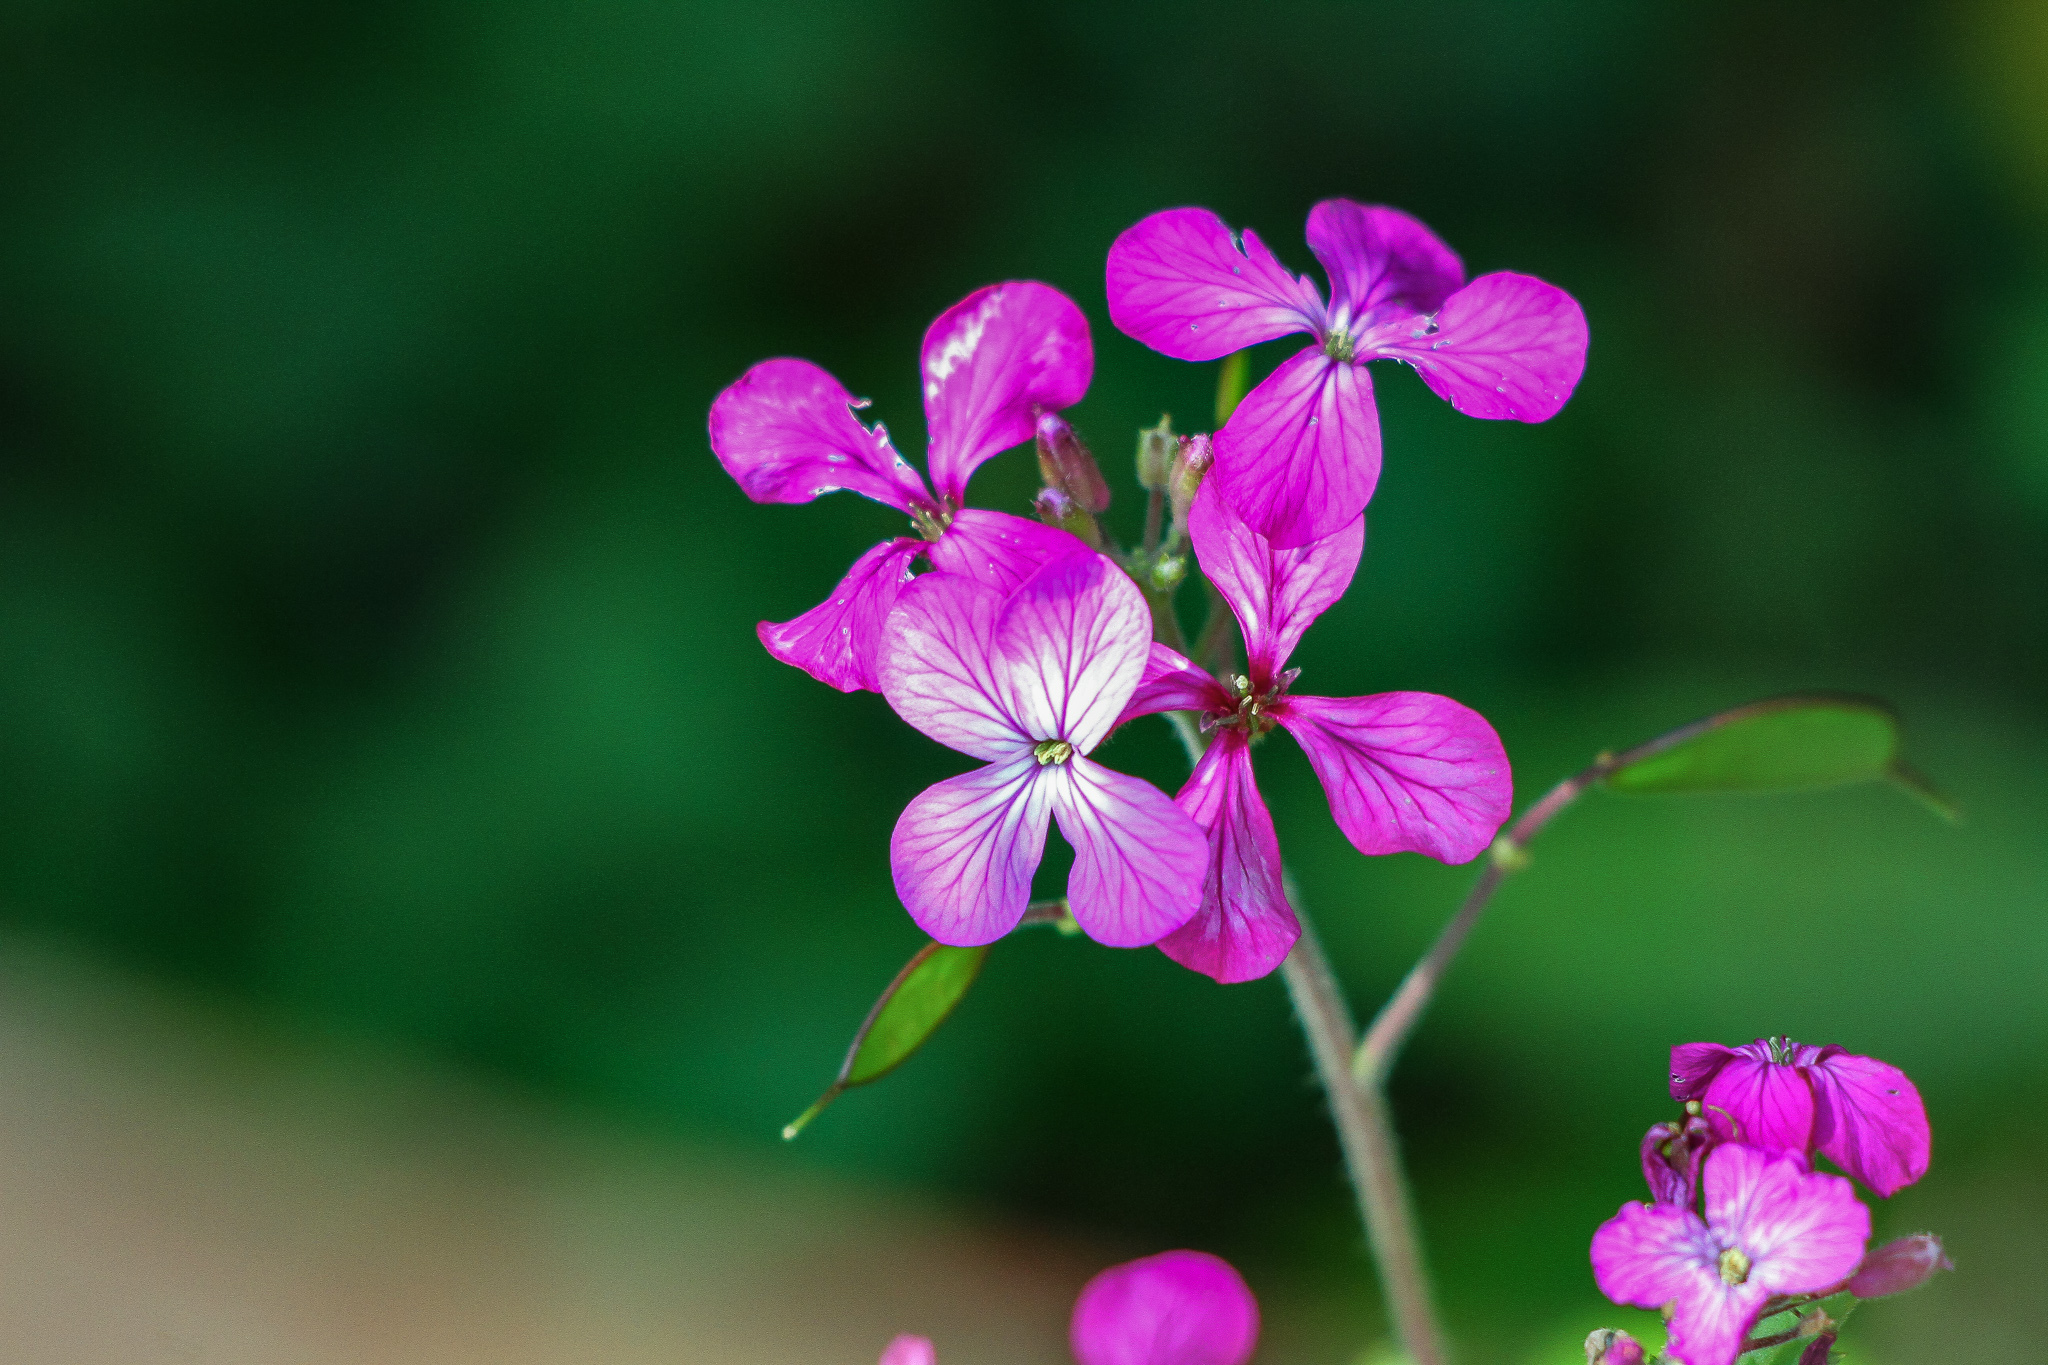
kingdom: Plantae
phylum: Tracheophyta
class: Magnoliopsida
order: Brassicales
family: Brassicaceae
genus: Lunaria
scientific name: Lunaria annua
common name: Honesty
